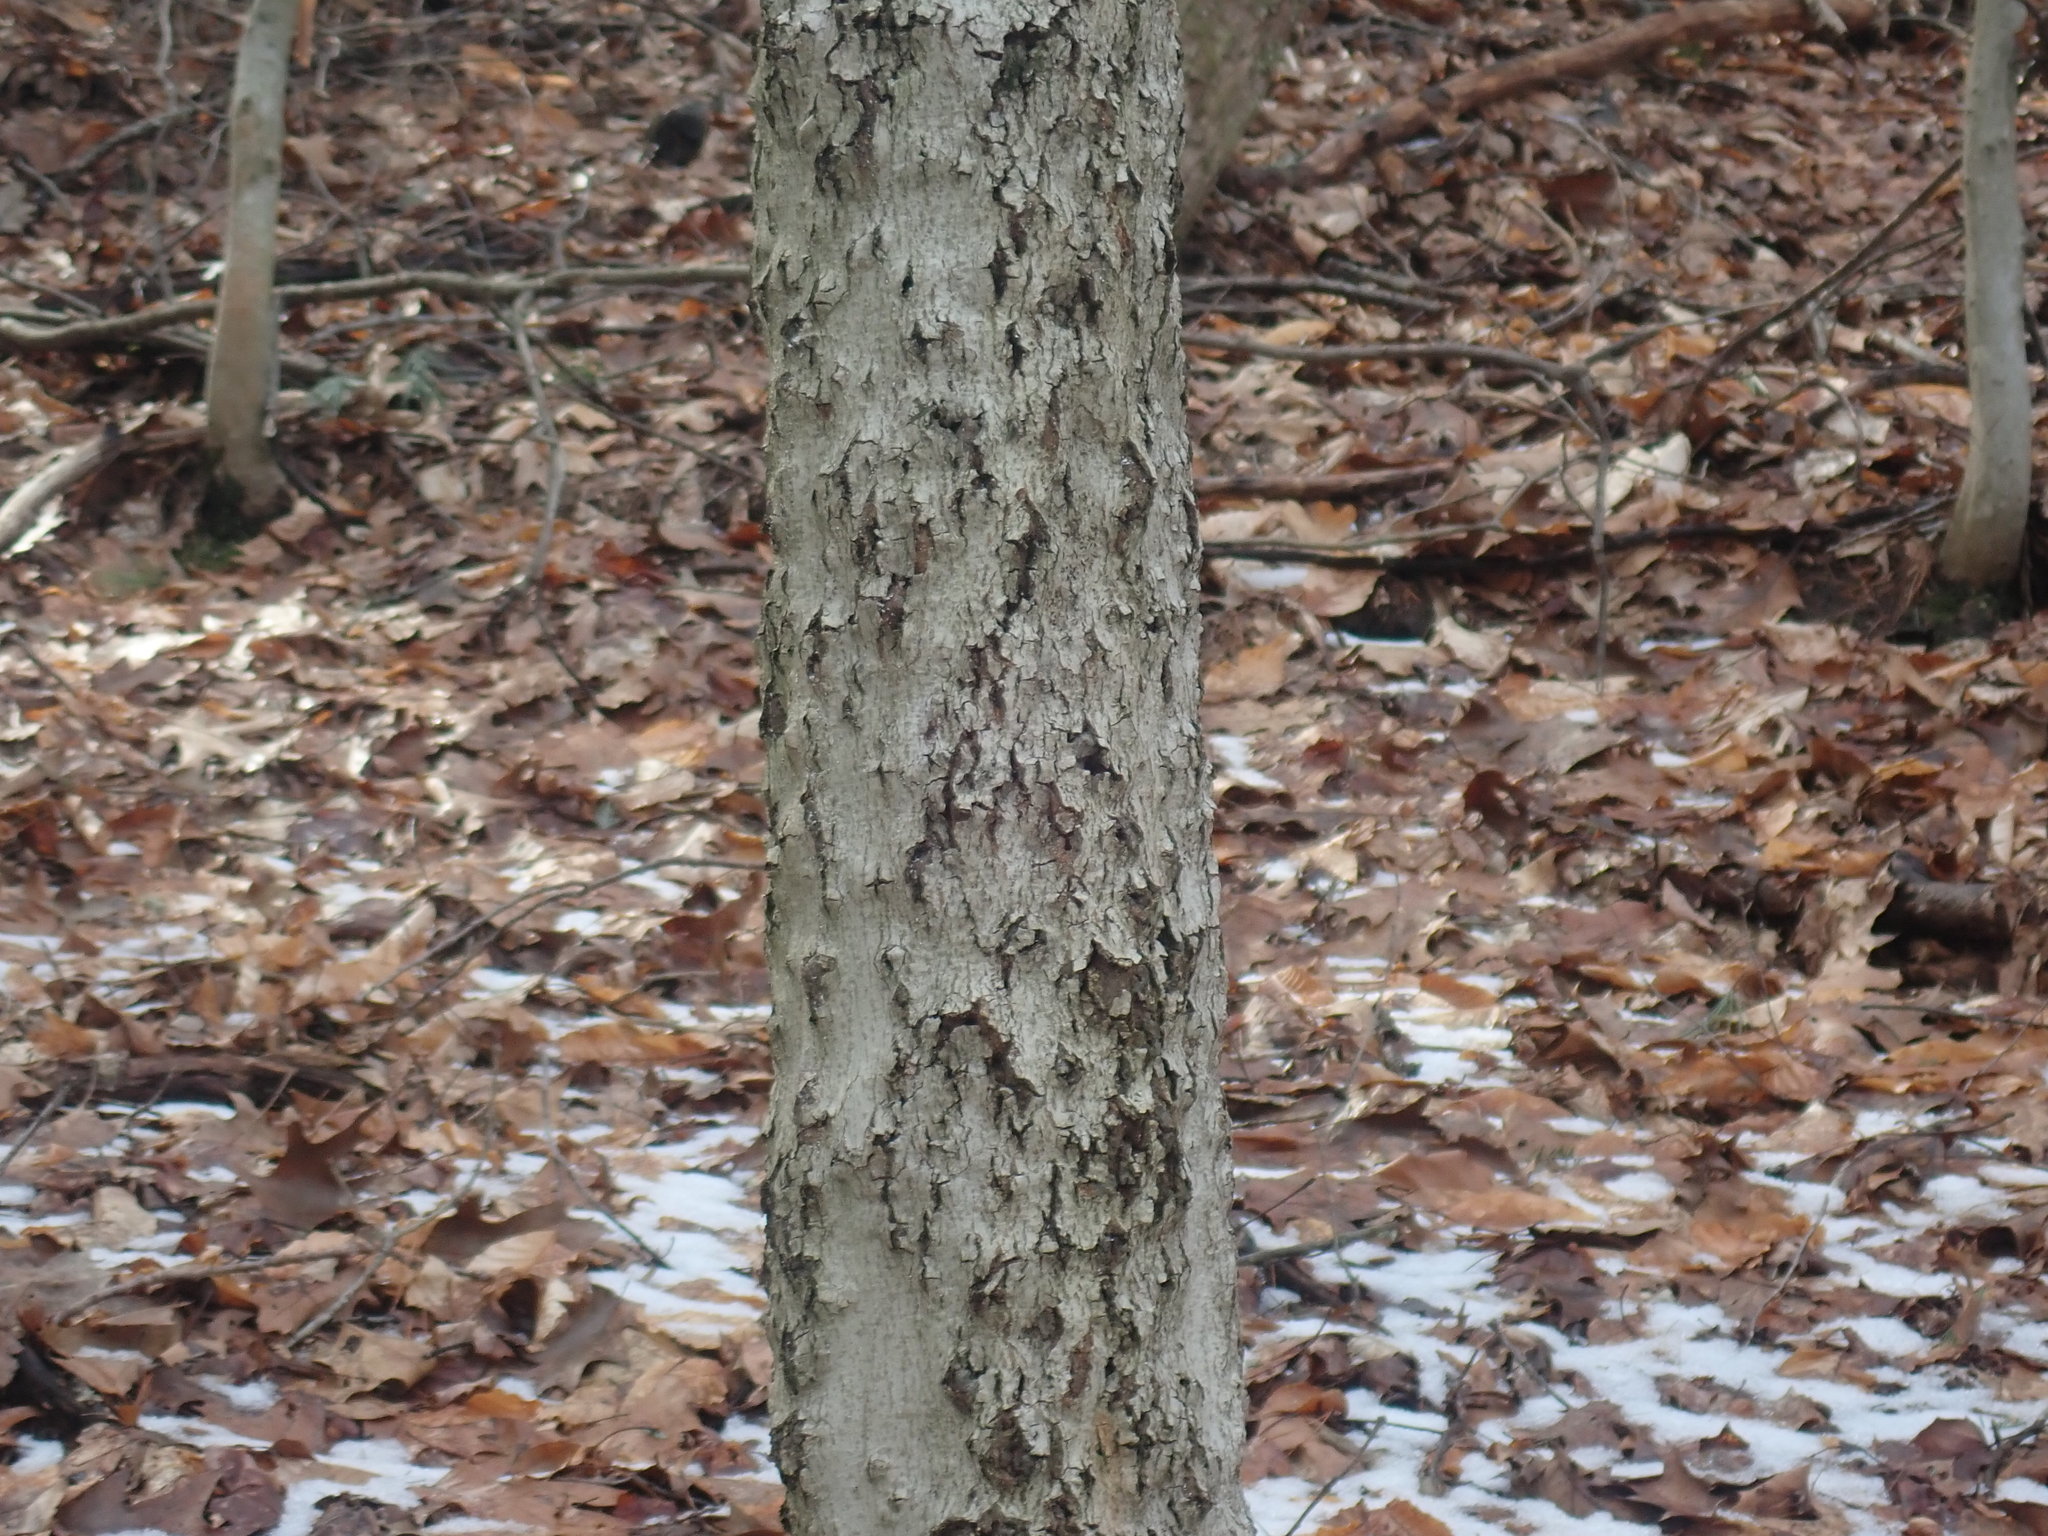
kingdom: Fungi
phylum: Ascomycota
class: Sordariomycetes
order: Hypocreales
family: Nectriaceae
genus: Neonectria
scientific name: Neonectria faginata
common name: Beech bark canker
